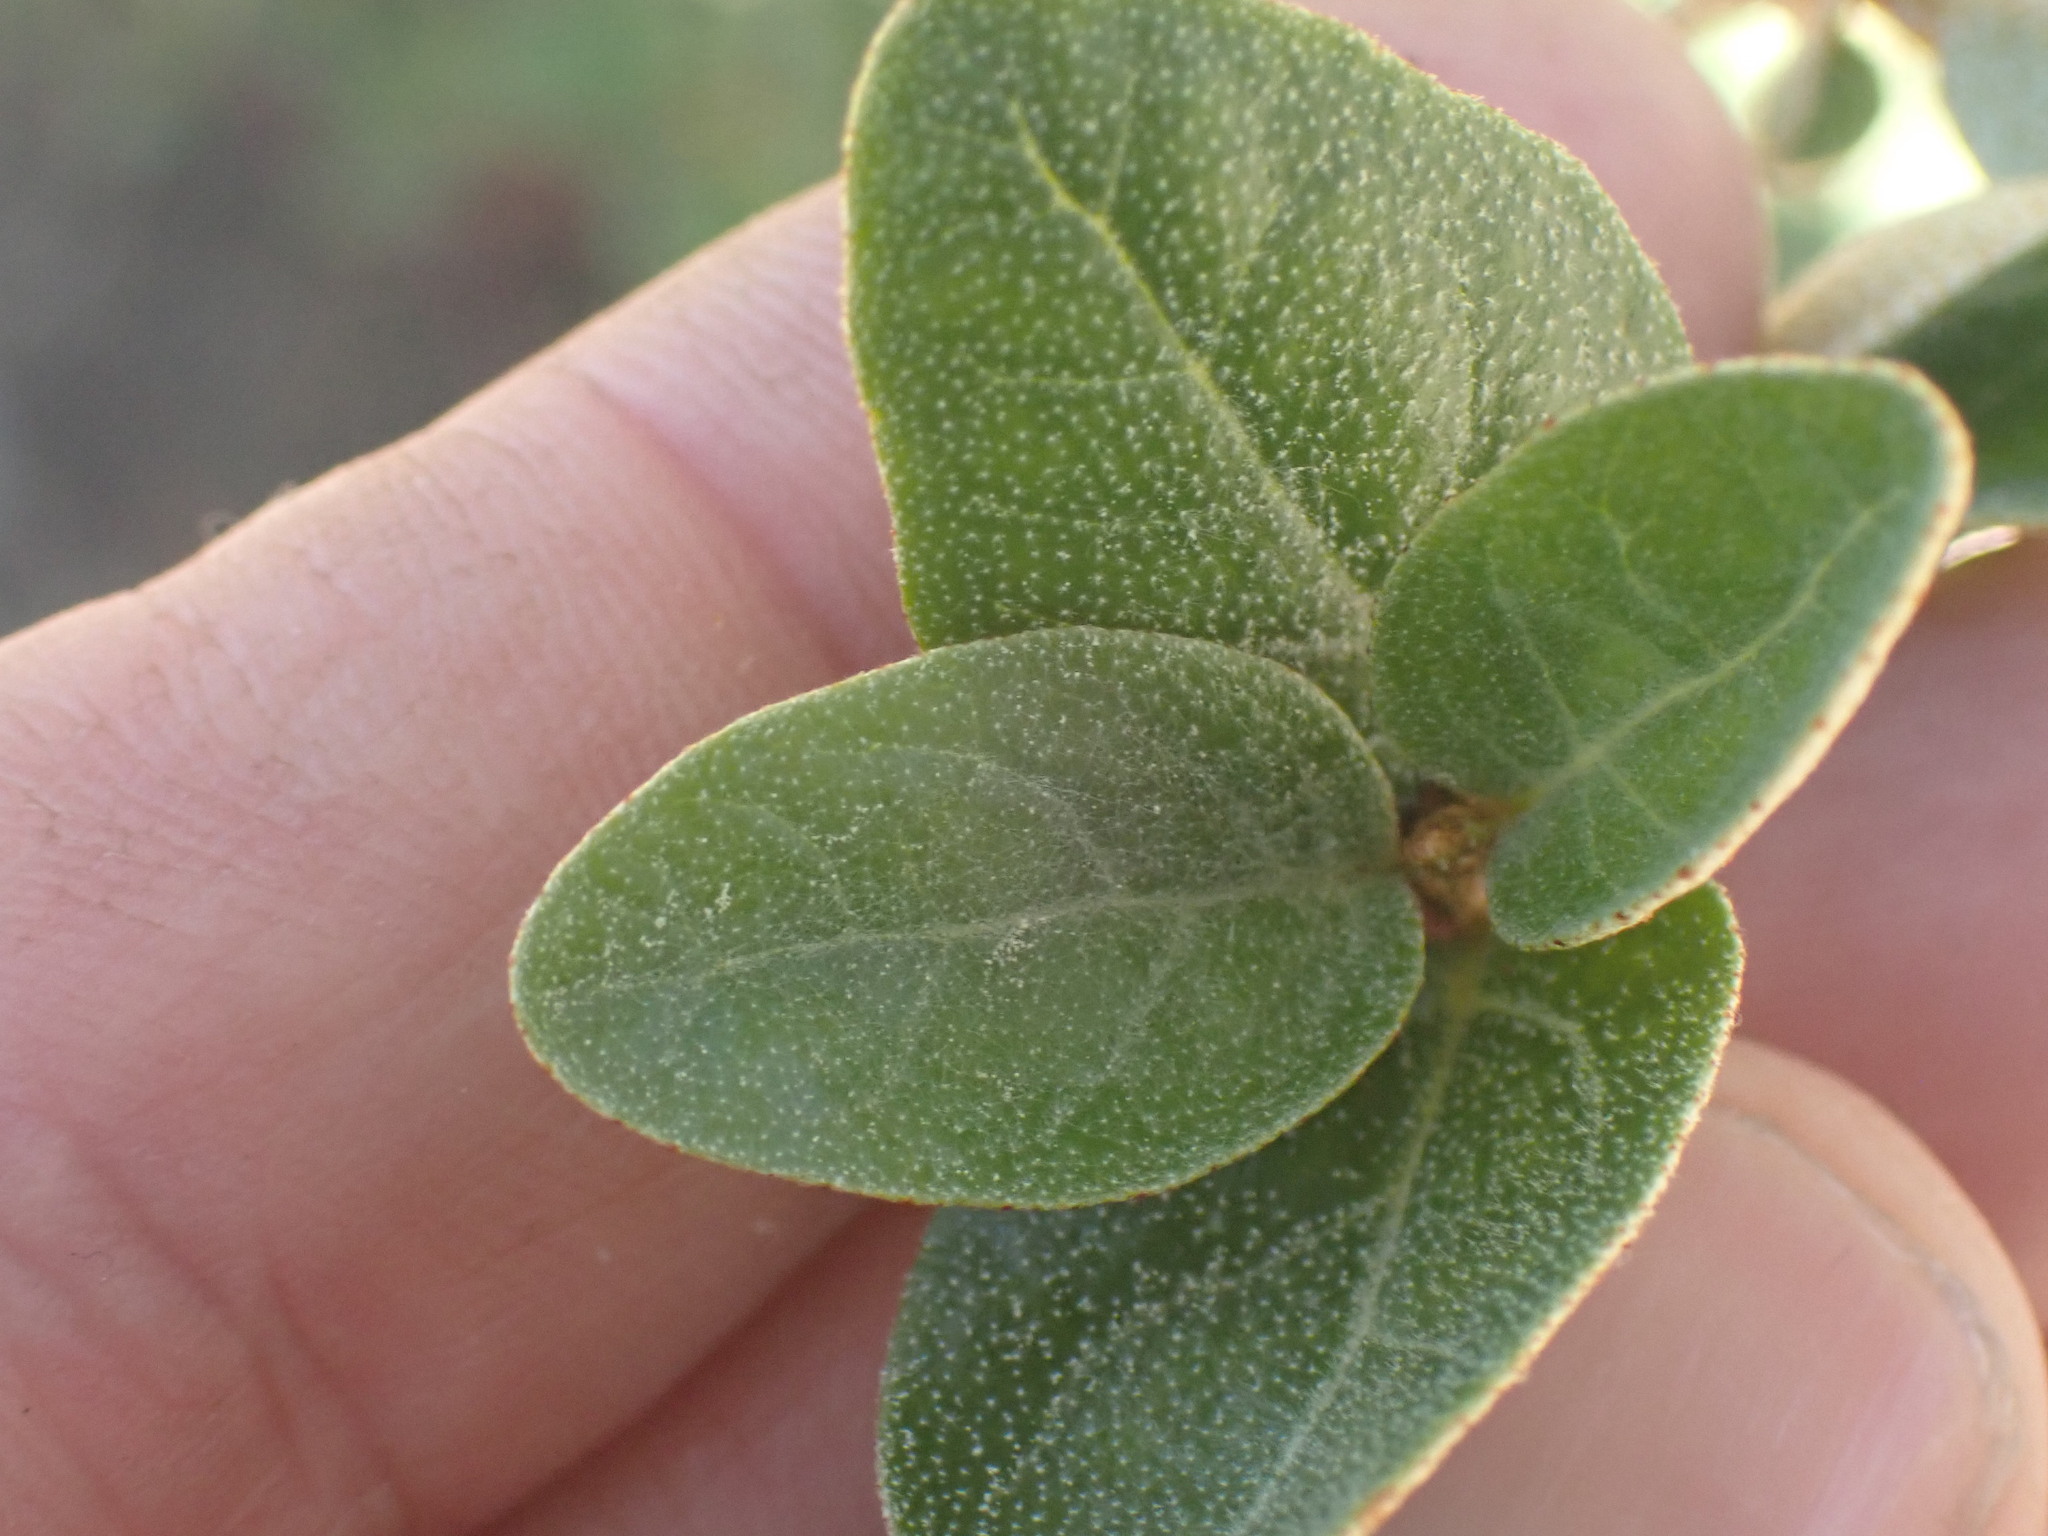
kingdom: Plantae
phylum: Tracheophyta
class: Magnoliopsida
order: Rosales
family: Elaeagnaceae
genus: Shepherdia
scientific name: Shepherdia canadensis
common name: Soapberry
